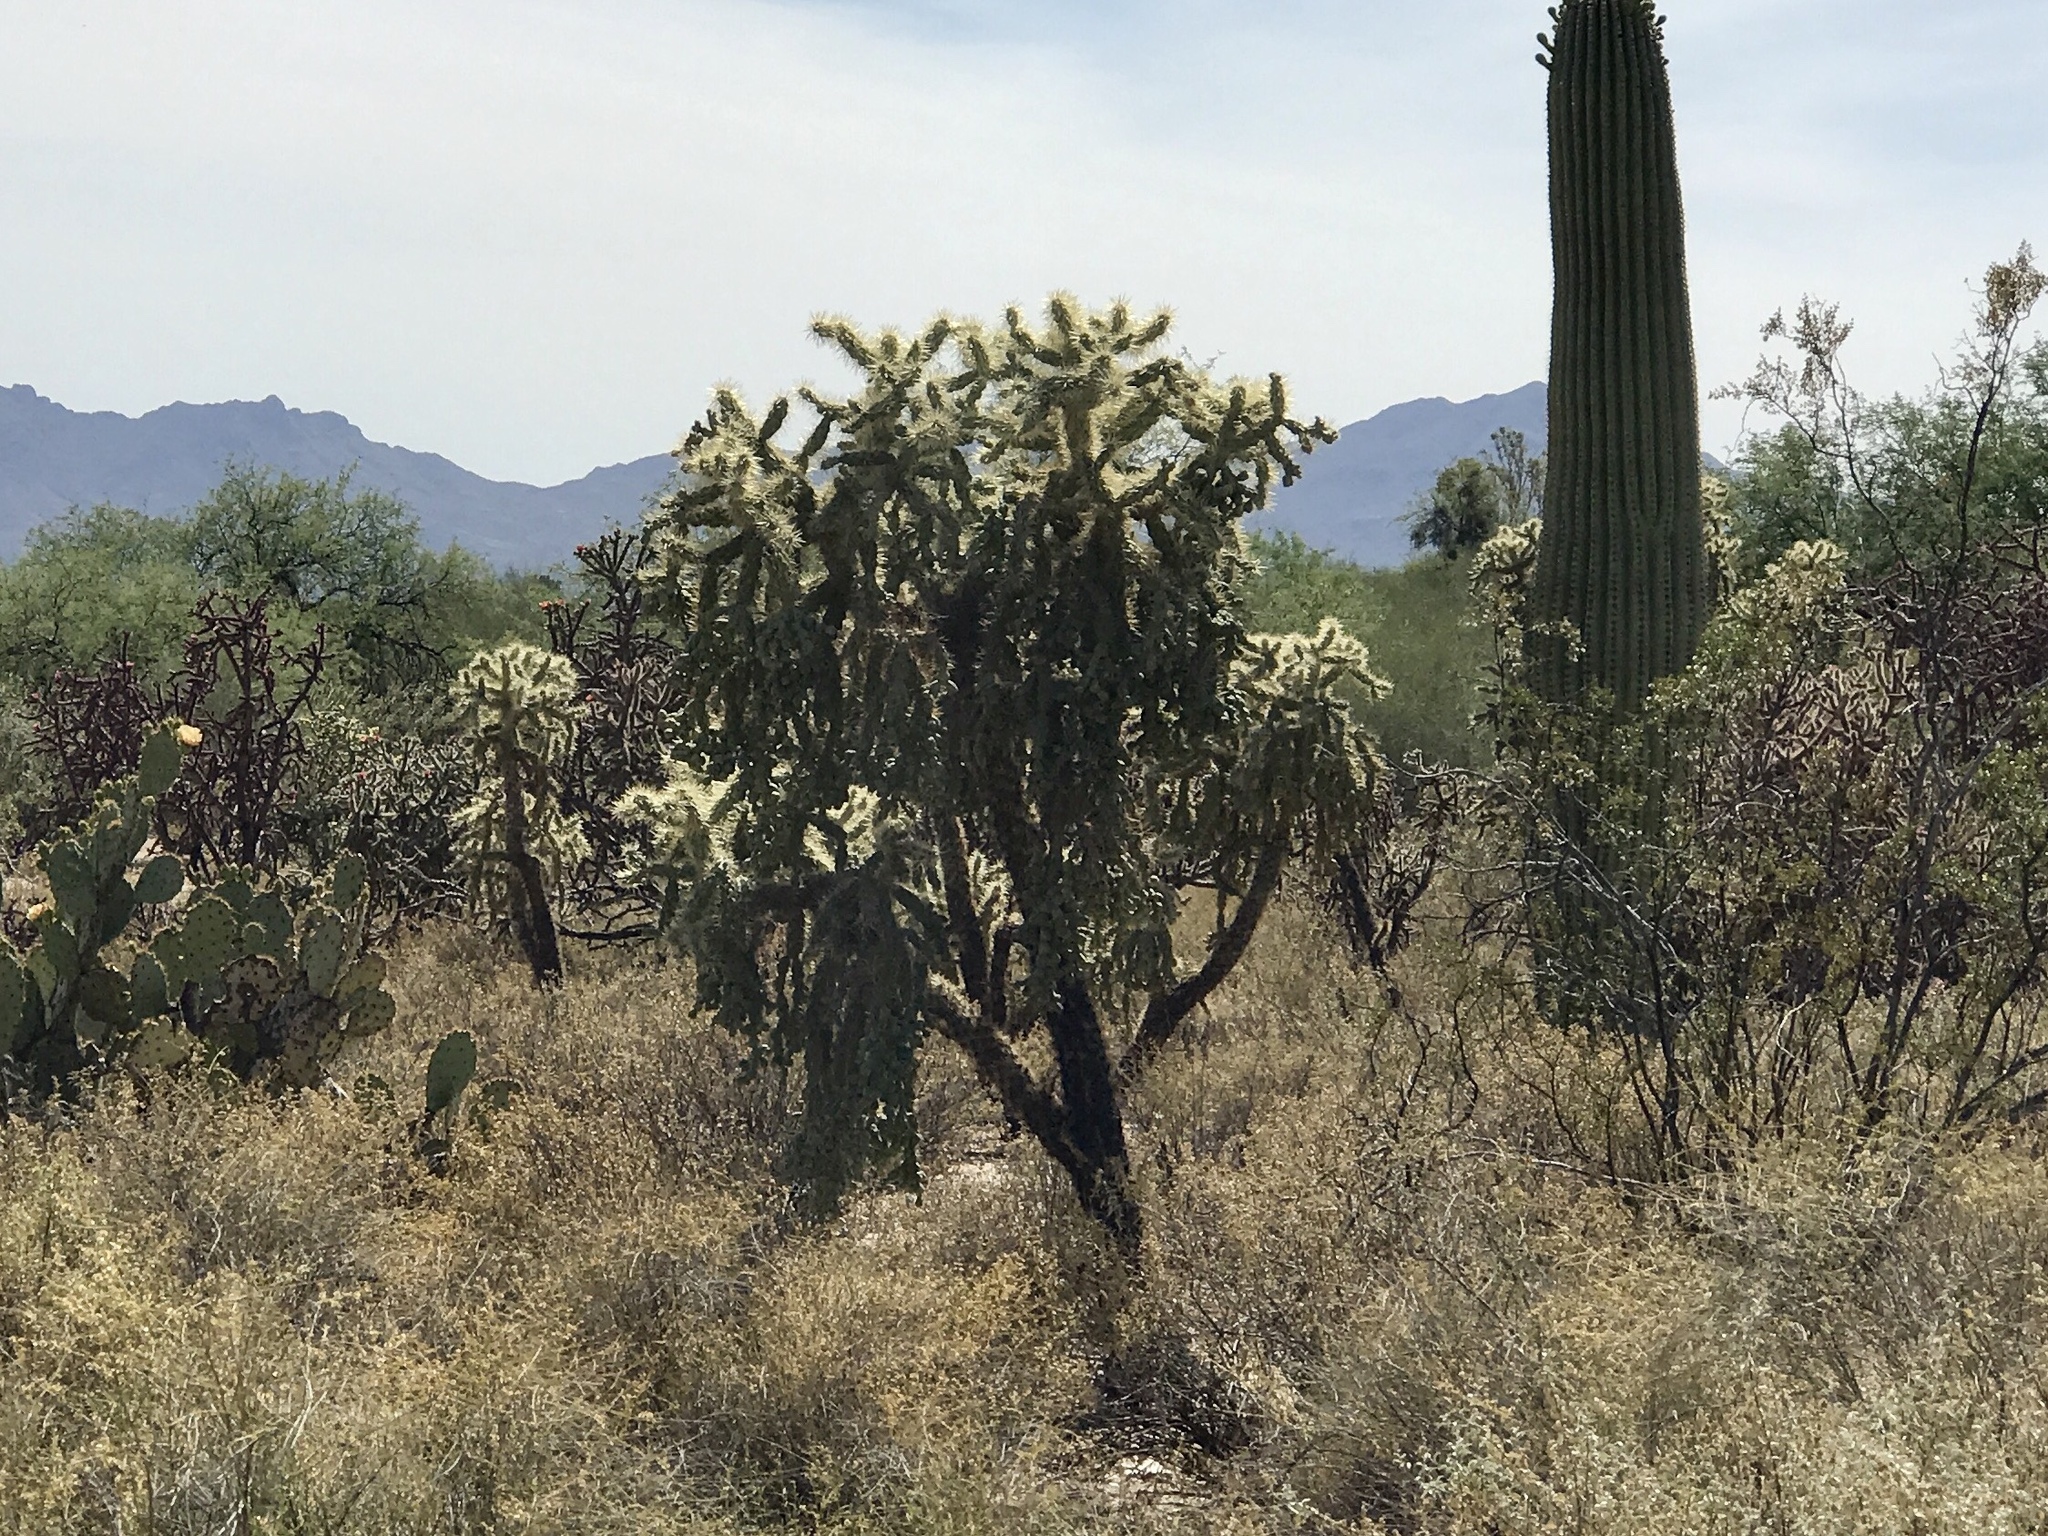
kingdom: Plantae
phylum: Tracheophyta
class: Magnoliopsida
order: Caryophyllales
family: Cactaceae
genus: Cylindropuntia
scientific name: Cylindropuntia fulgida
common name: Jumping cholla
